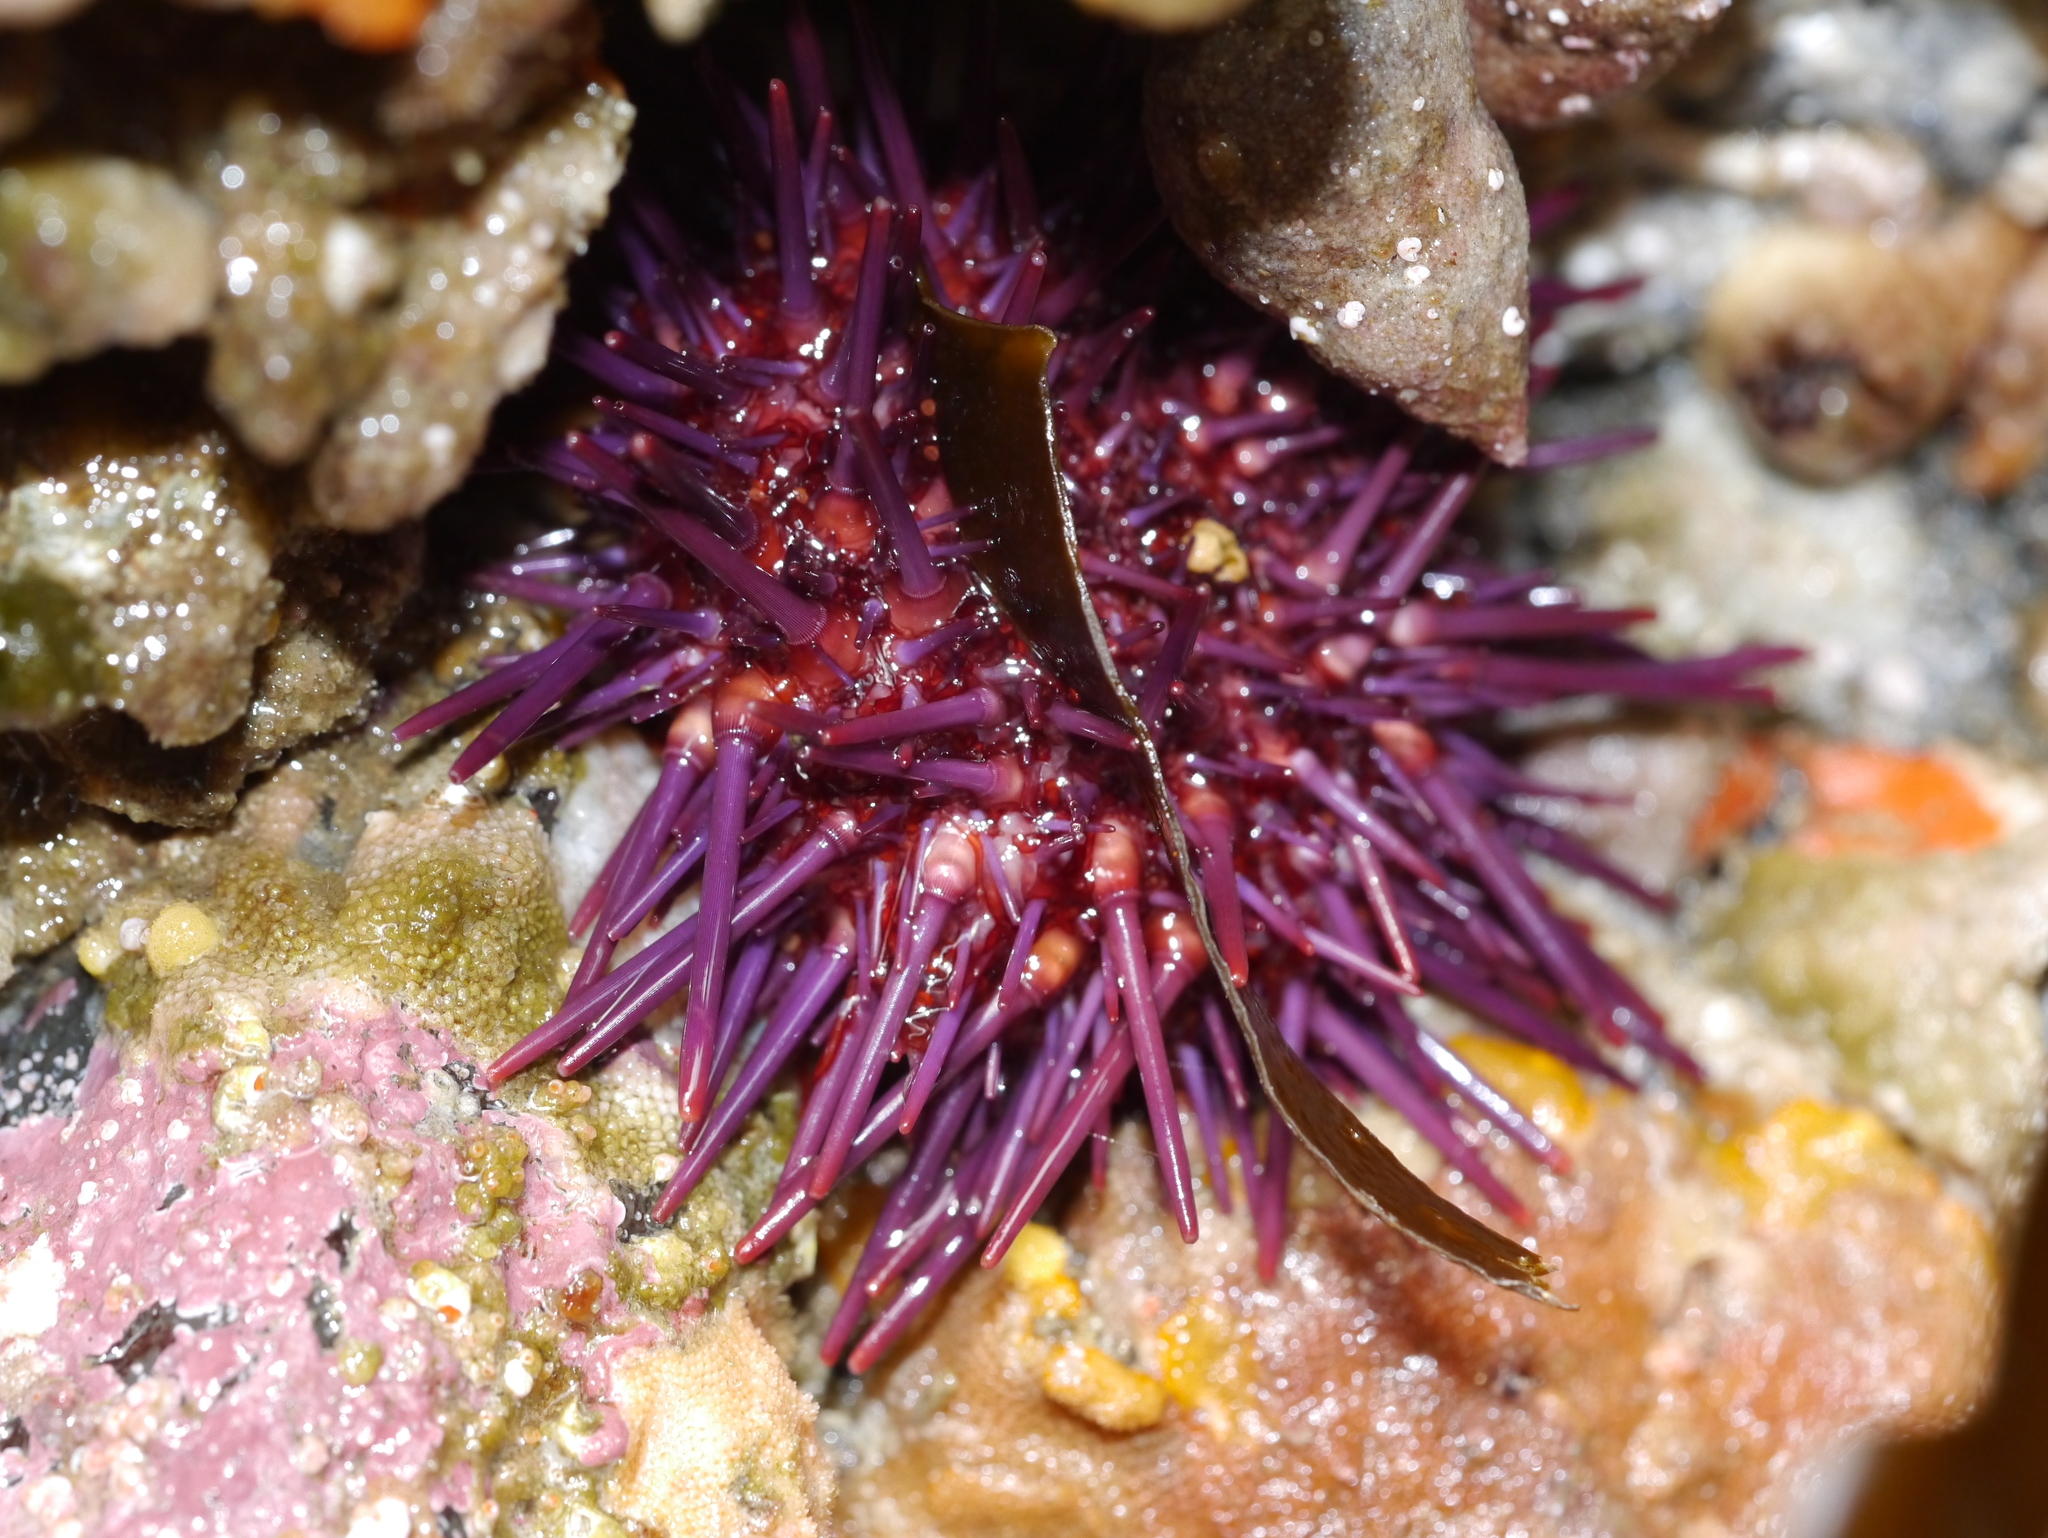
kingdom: Animalia
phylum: Echinodermata
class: Echinoidea
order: Camarodonta
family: Strongylocentrotidae
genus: Strongylocentrotus
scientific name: Strongylocentrotus purpuratus
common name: Purple sea urchin
